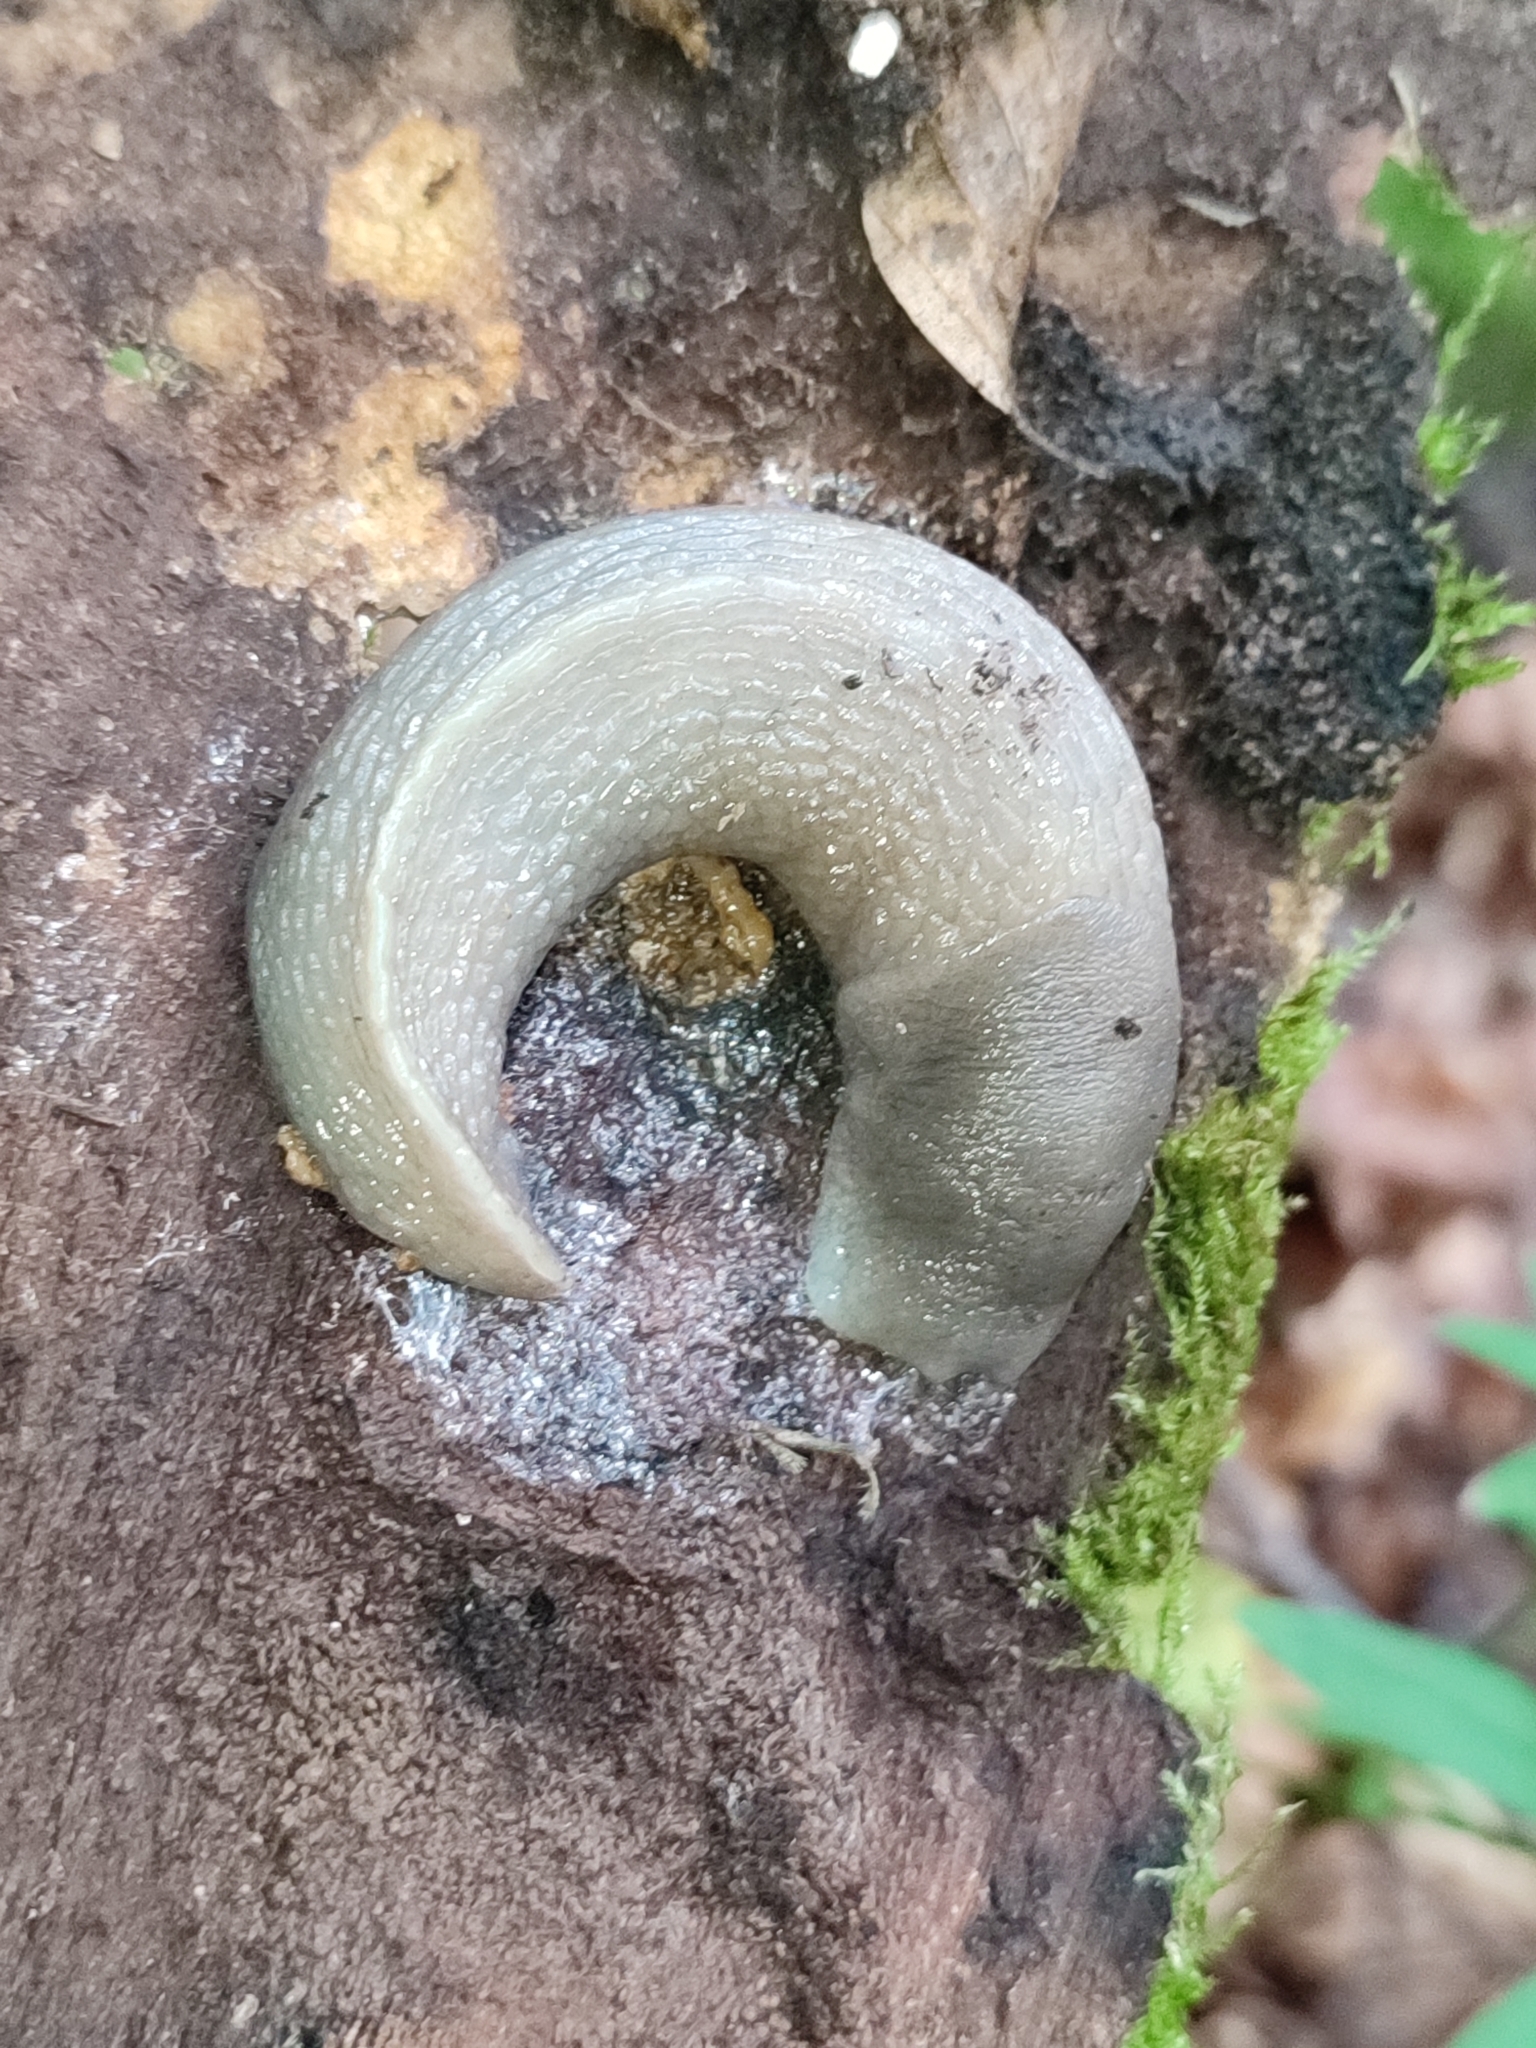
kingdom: Animalia
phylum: Mollusca
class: Gastropoda
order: Stylommatophora
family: Limacidae
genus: Limax
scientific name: Limax cinereoniger
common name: Ash-black slug
